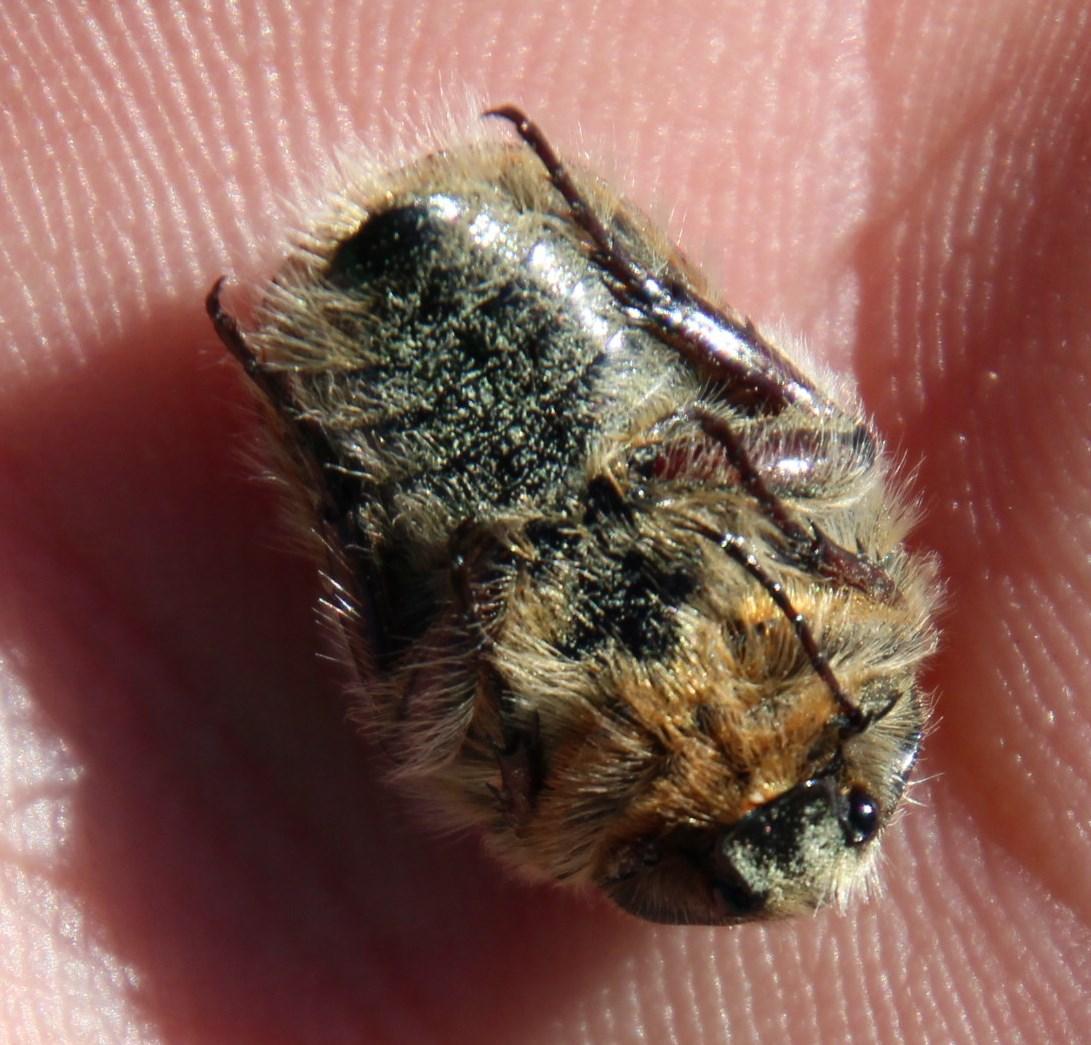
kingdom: Animalia
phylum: Arthropoda
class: Insecta
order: Coleoptera
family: Scarabaeidae
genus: Trichostetha
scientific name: Trichostetha capensis
